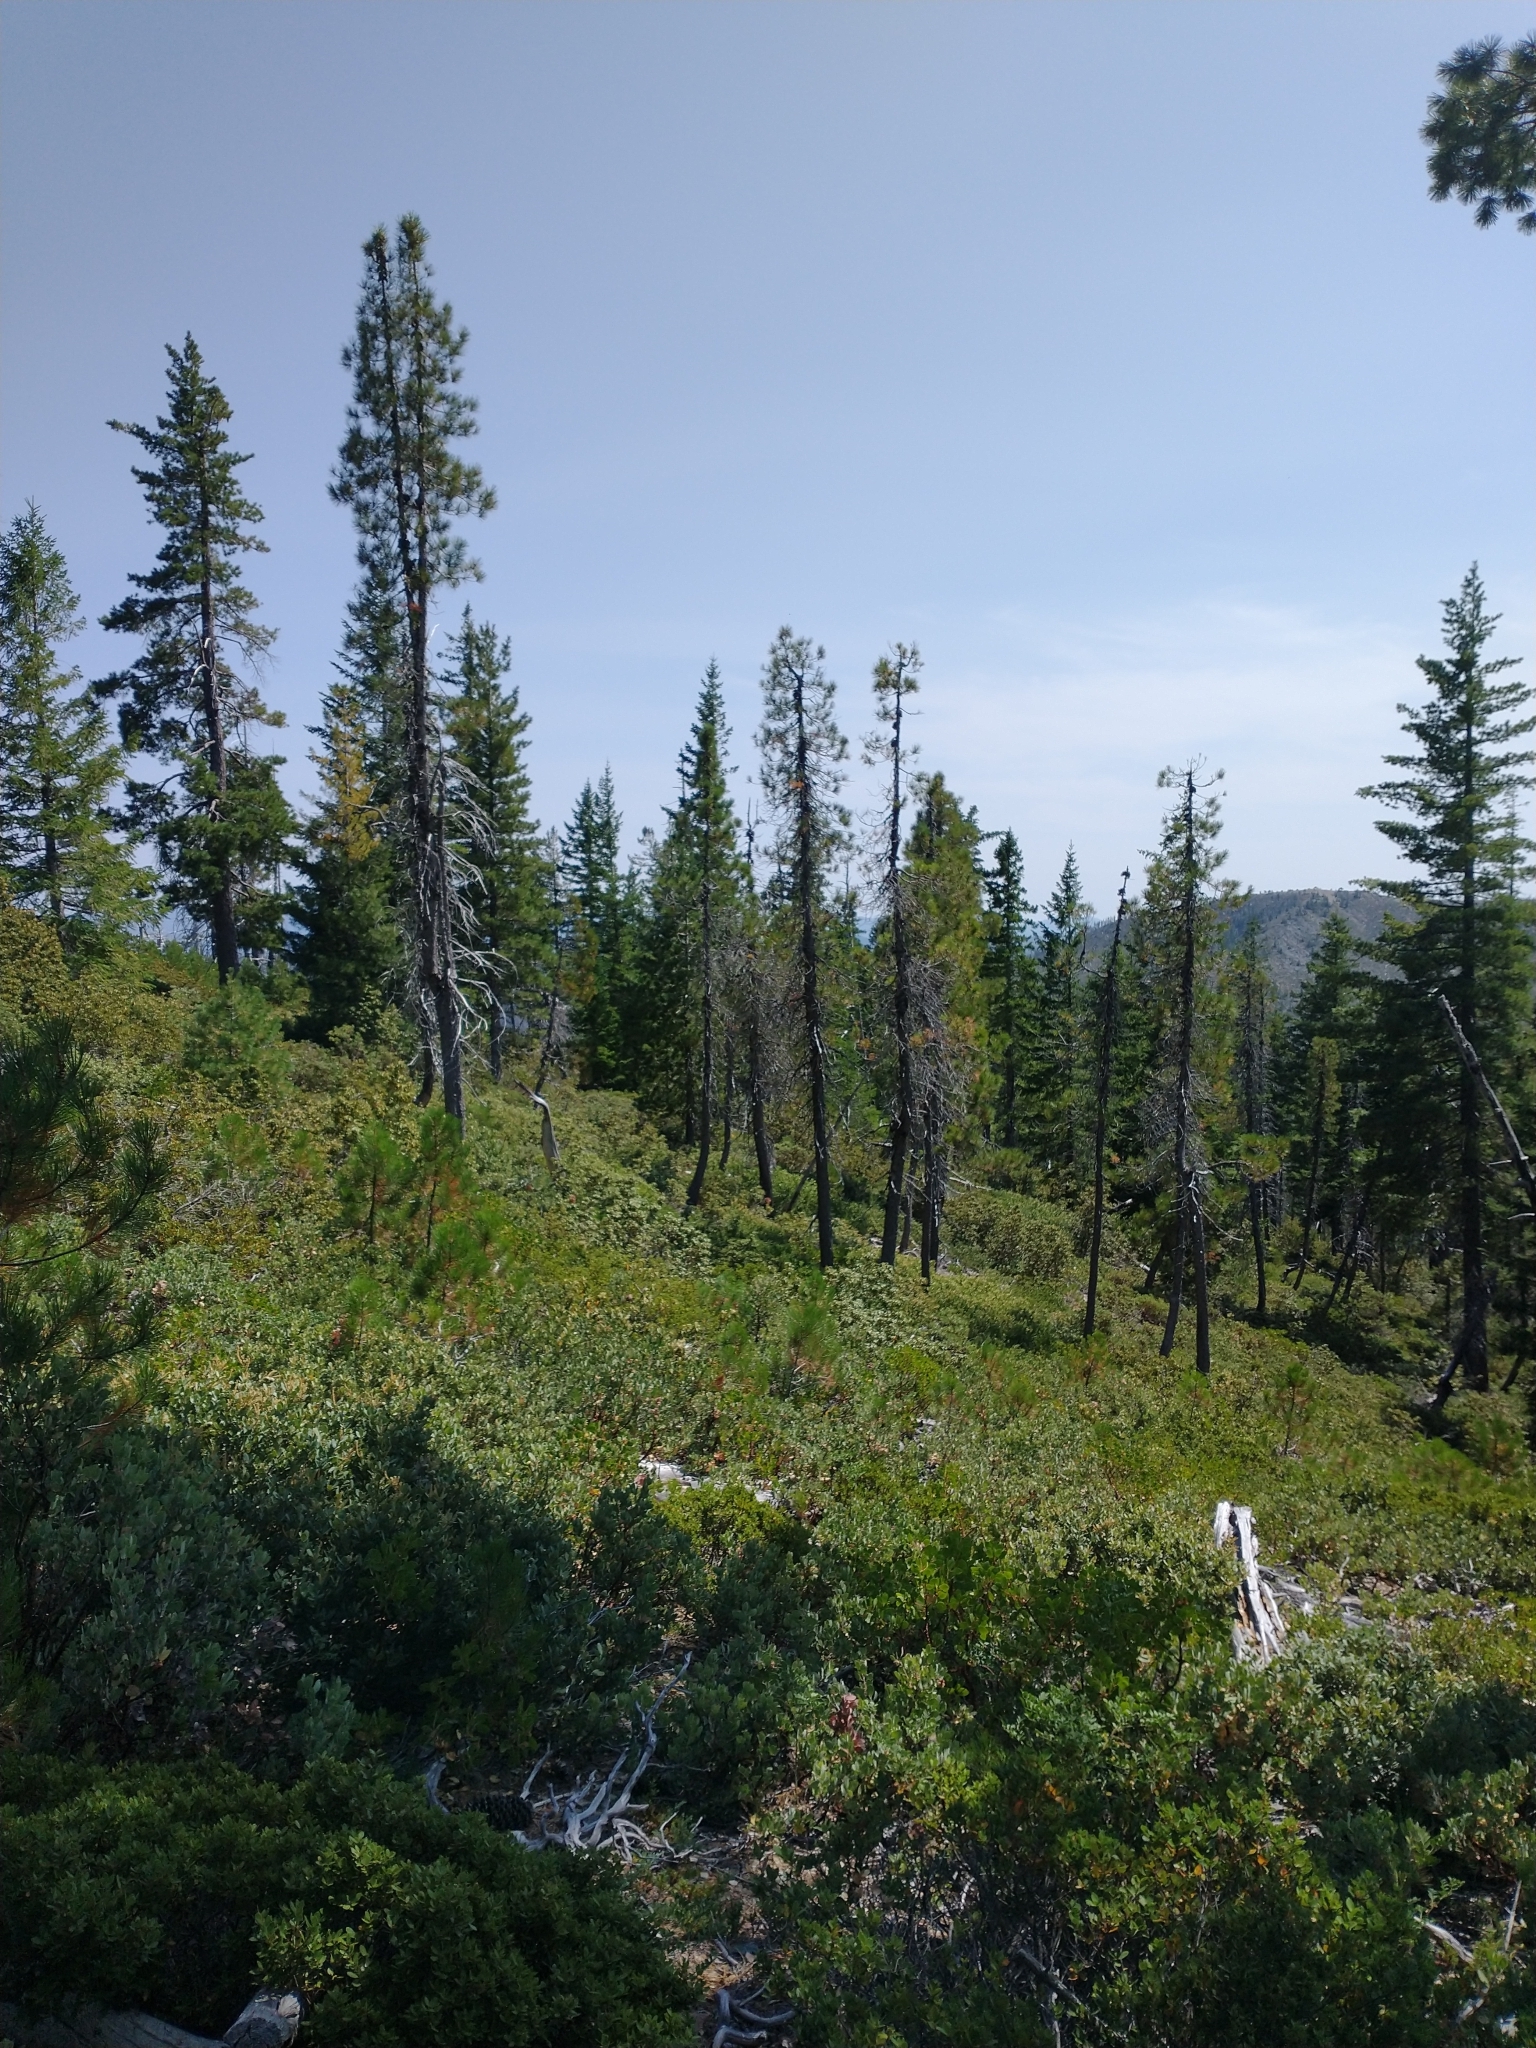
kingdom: Plantae
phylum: Tracheophyta
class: Pinopsida
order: Pinales
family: Pinaceae
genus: Pinus
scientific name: Pinus attenuata
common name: Knobcone pine
